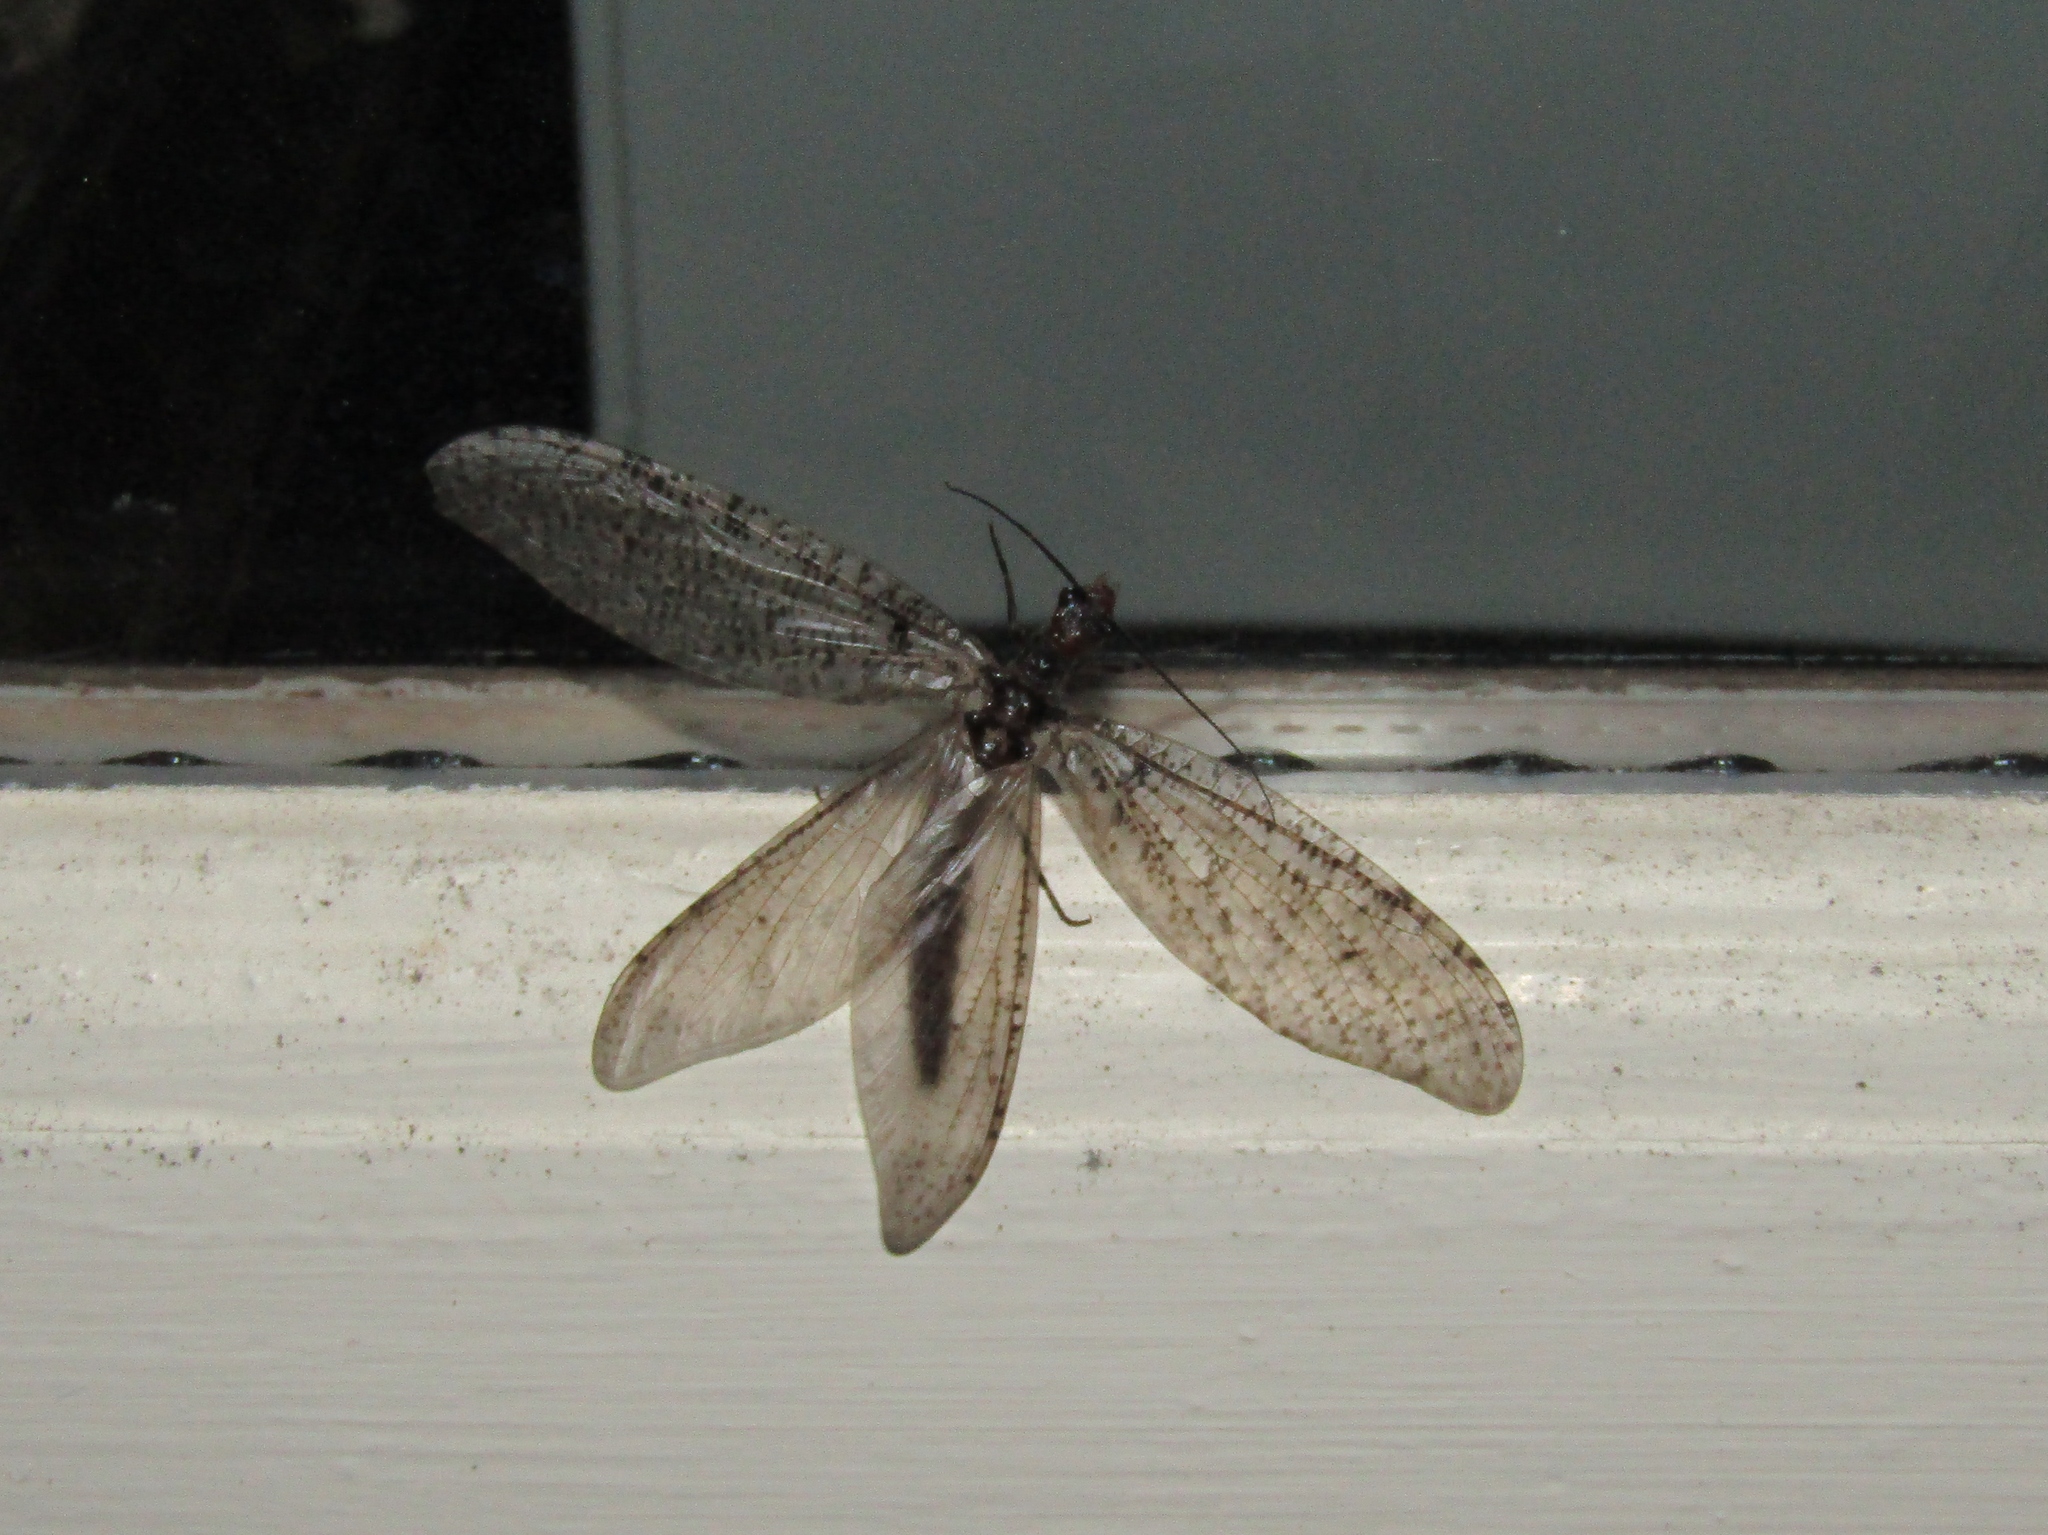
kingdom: Animalia
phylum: Arthropoda
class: Insecta
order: Megaloptera
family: Corydalidae
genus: Neohermes
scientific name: Neohermes concolor
